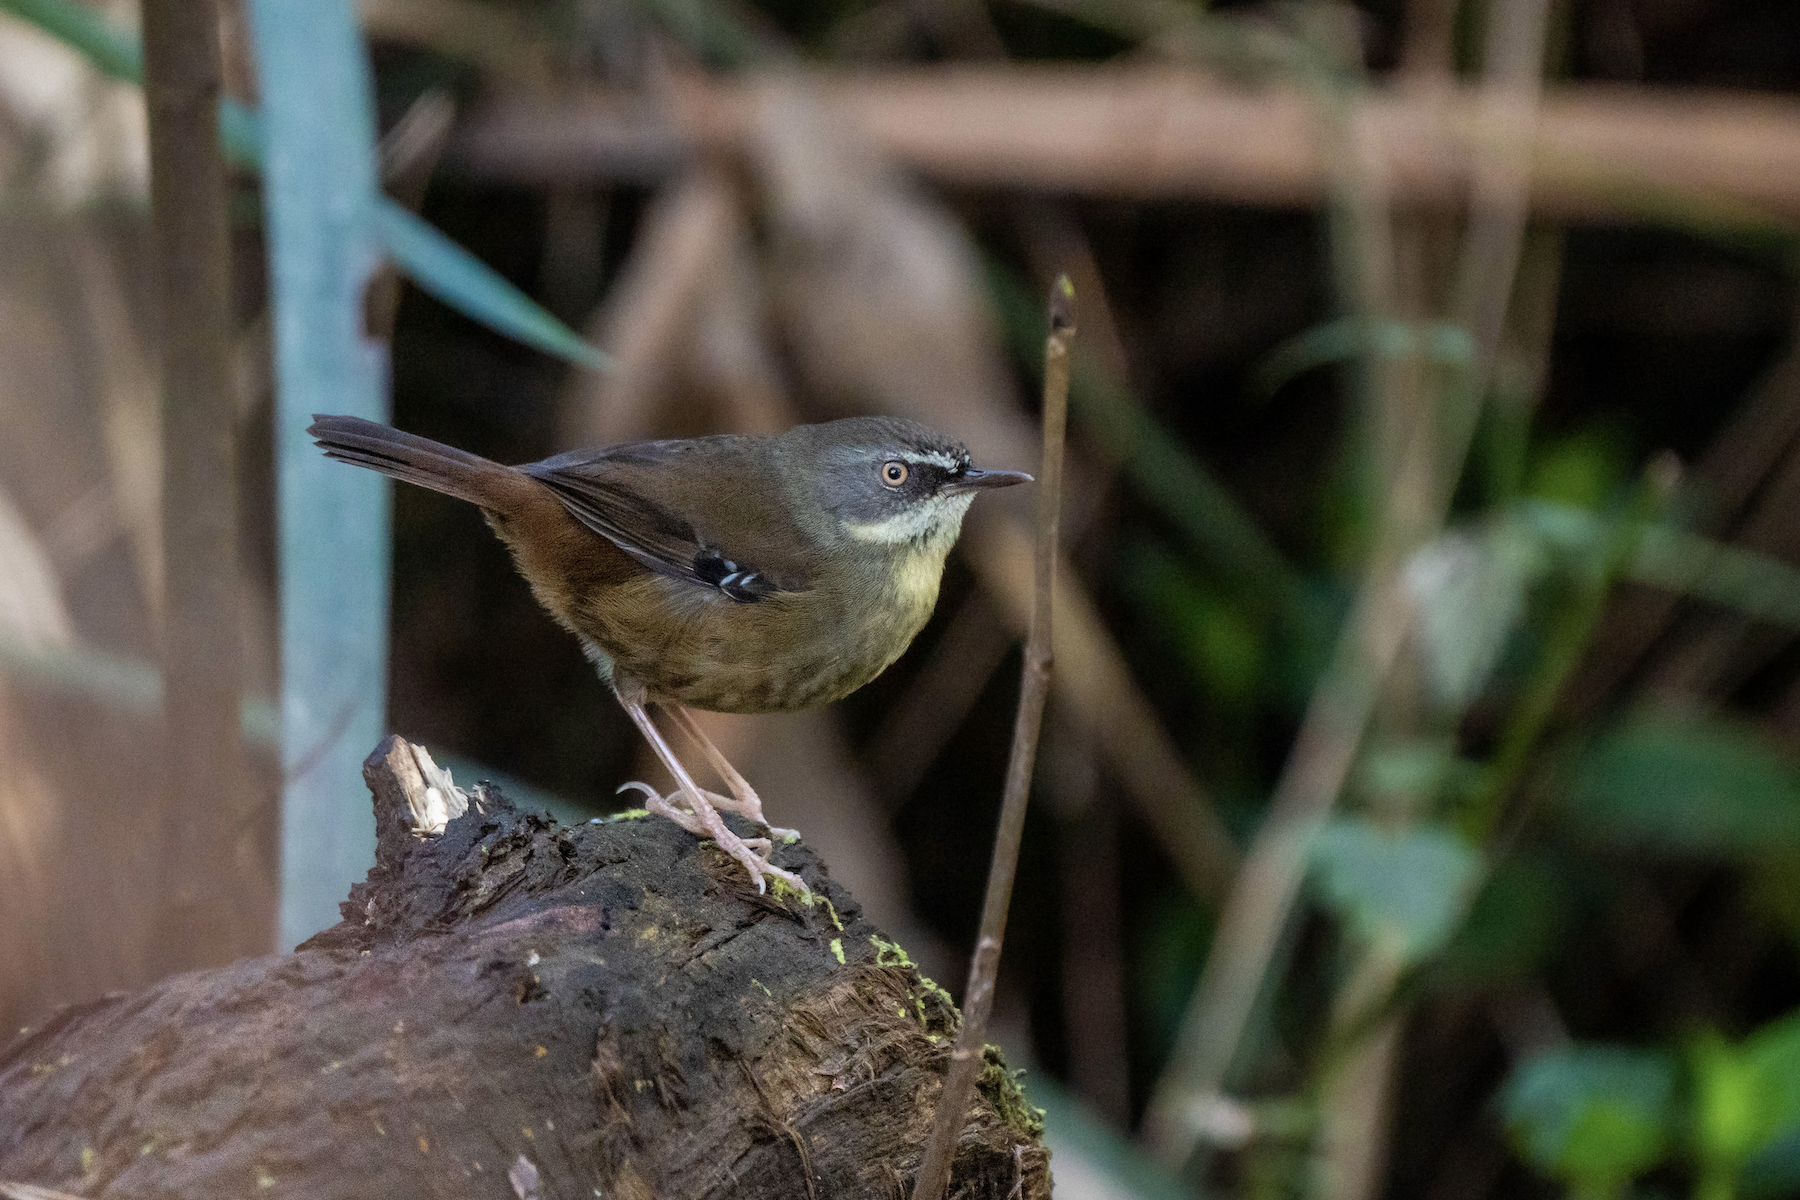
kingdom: Animalia
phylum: Chordata
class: Aves
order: Passeriformes
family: Acanthizidae
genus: Sericornis
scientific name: Sericornis frontalis
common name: White-browed scrubwren
